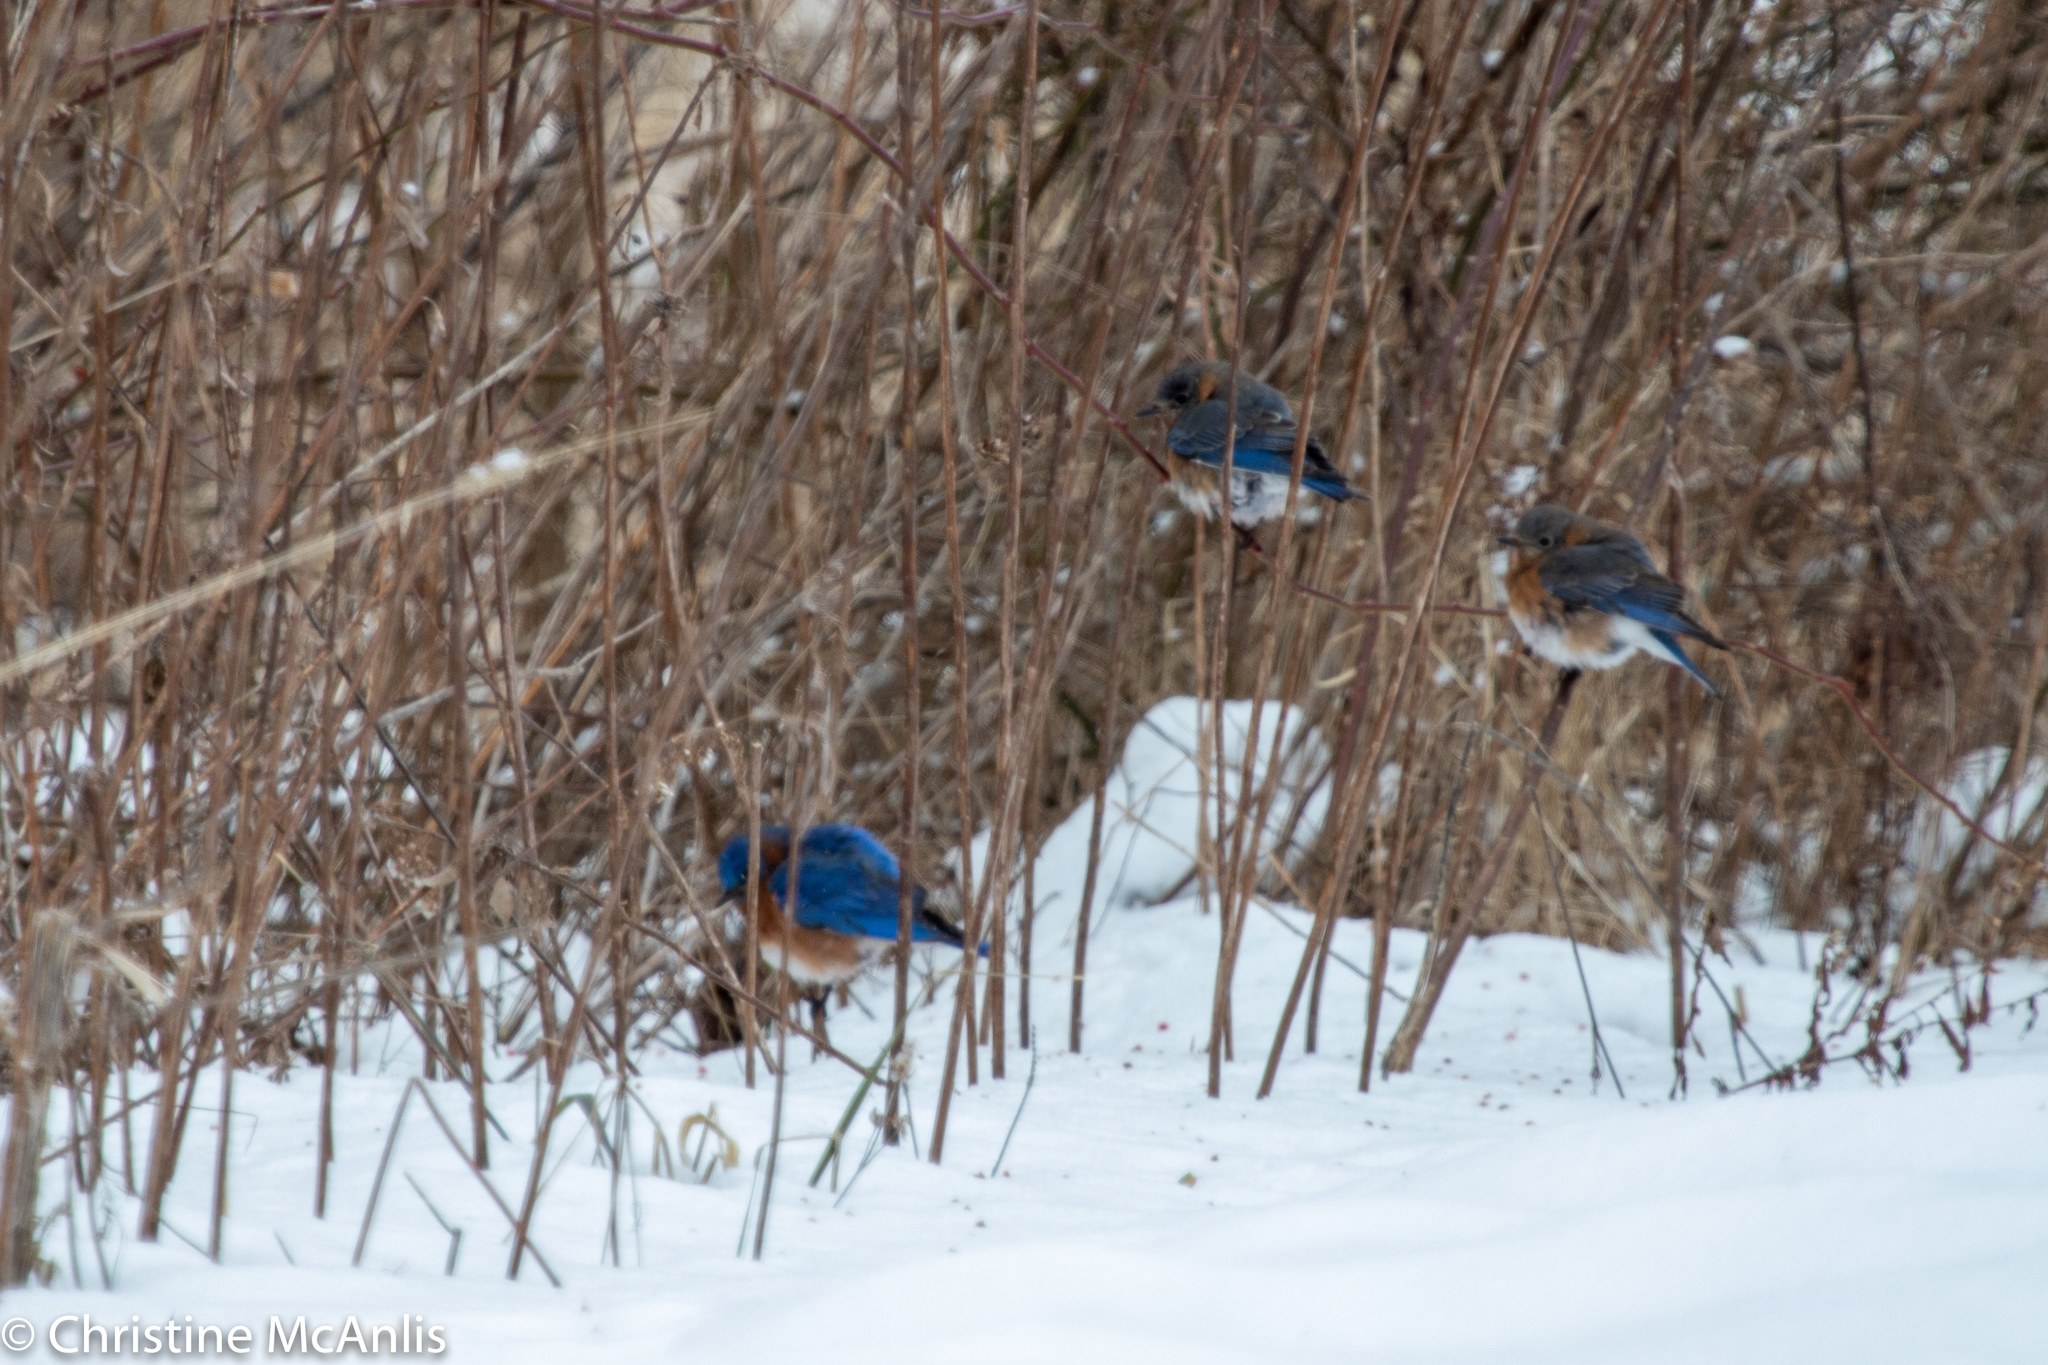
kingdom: Animalia
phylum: Chordata
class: Aves
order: Passeriformes
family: Turdidae
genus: Sialia
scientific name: Sialia sialis
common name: Eastern bluebird
